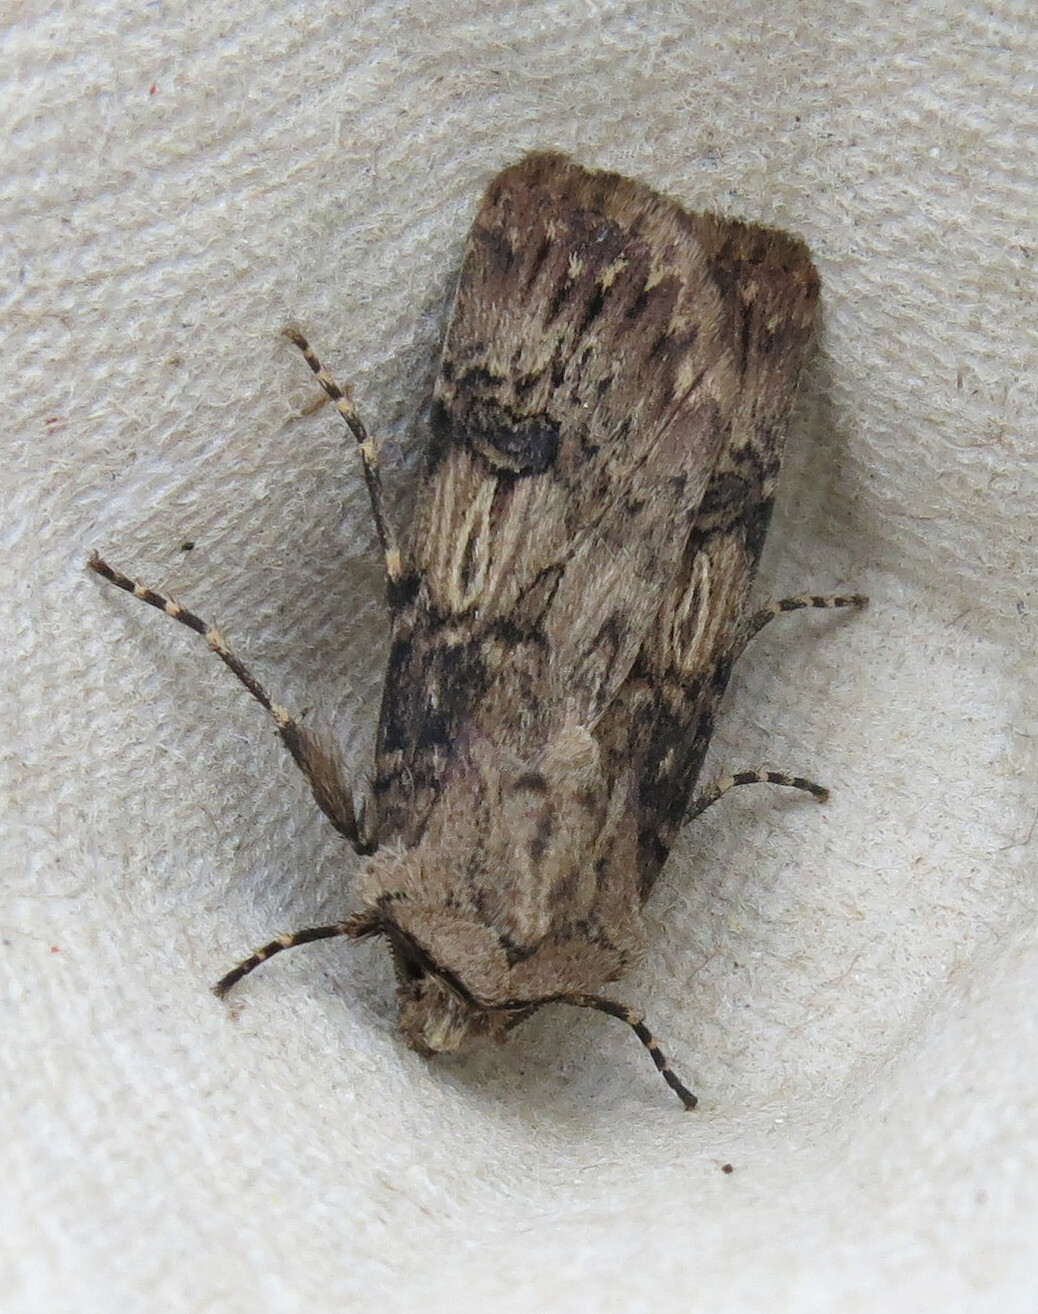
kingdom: Animalia
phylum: Arthropoda
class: Insecta
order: Lepidoptera
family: Noctuidae
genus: Agrotis
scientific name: Agrotis puta
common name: Shuttle-shaped dart
